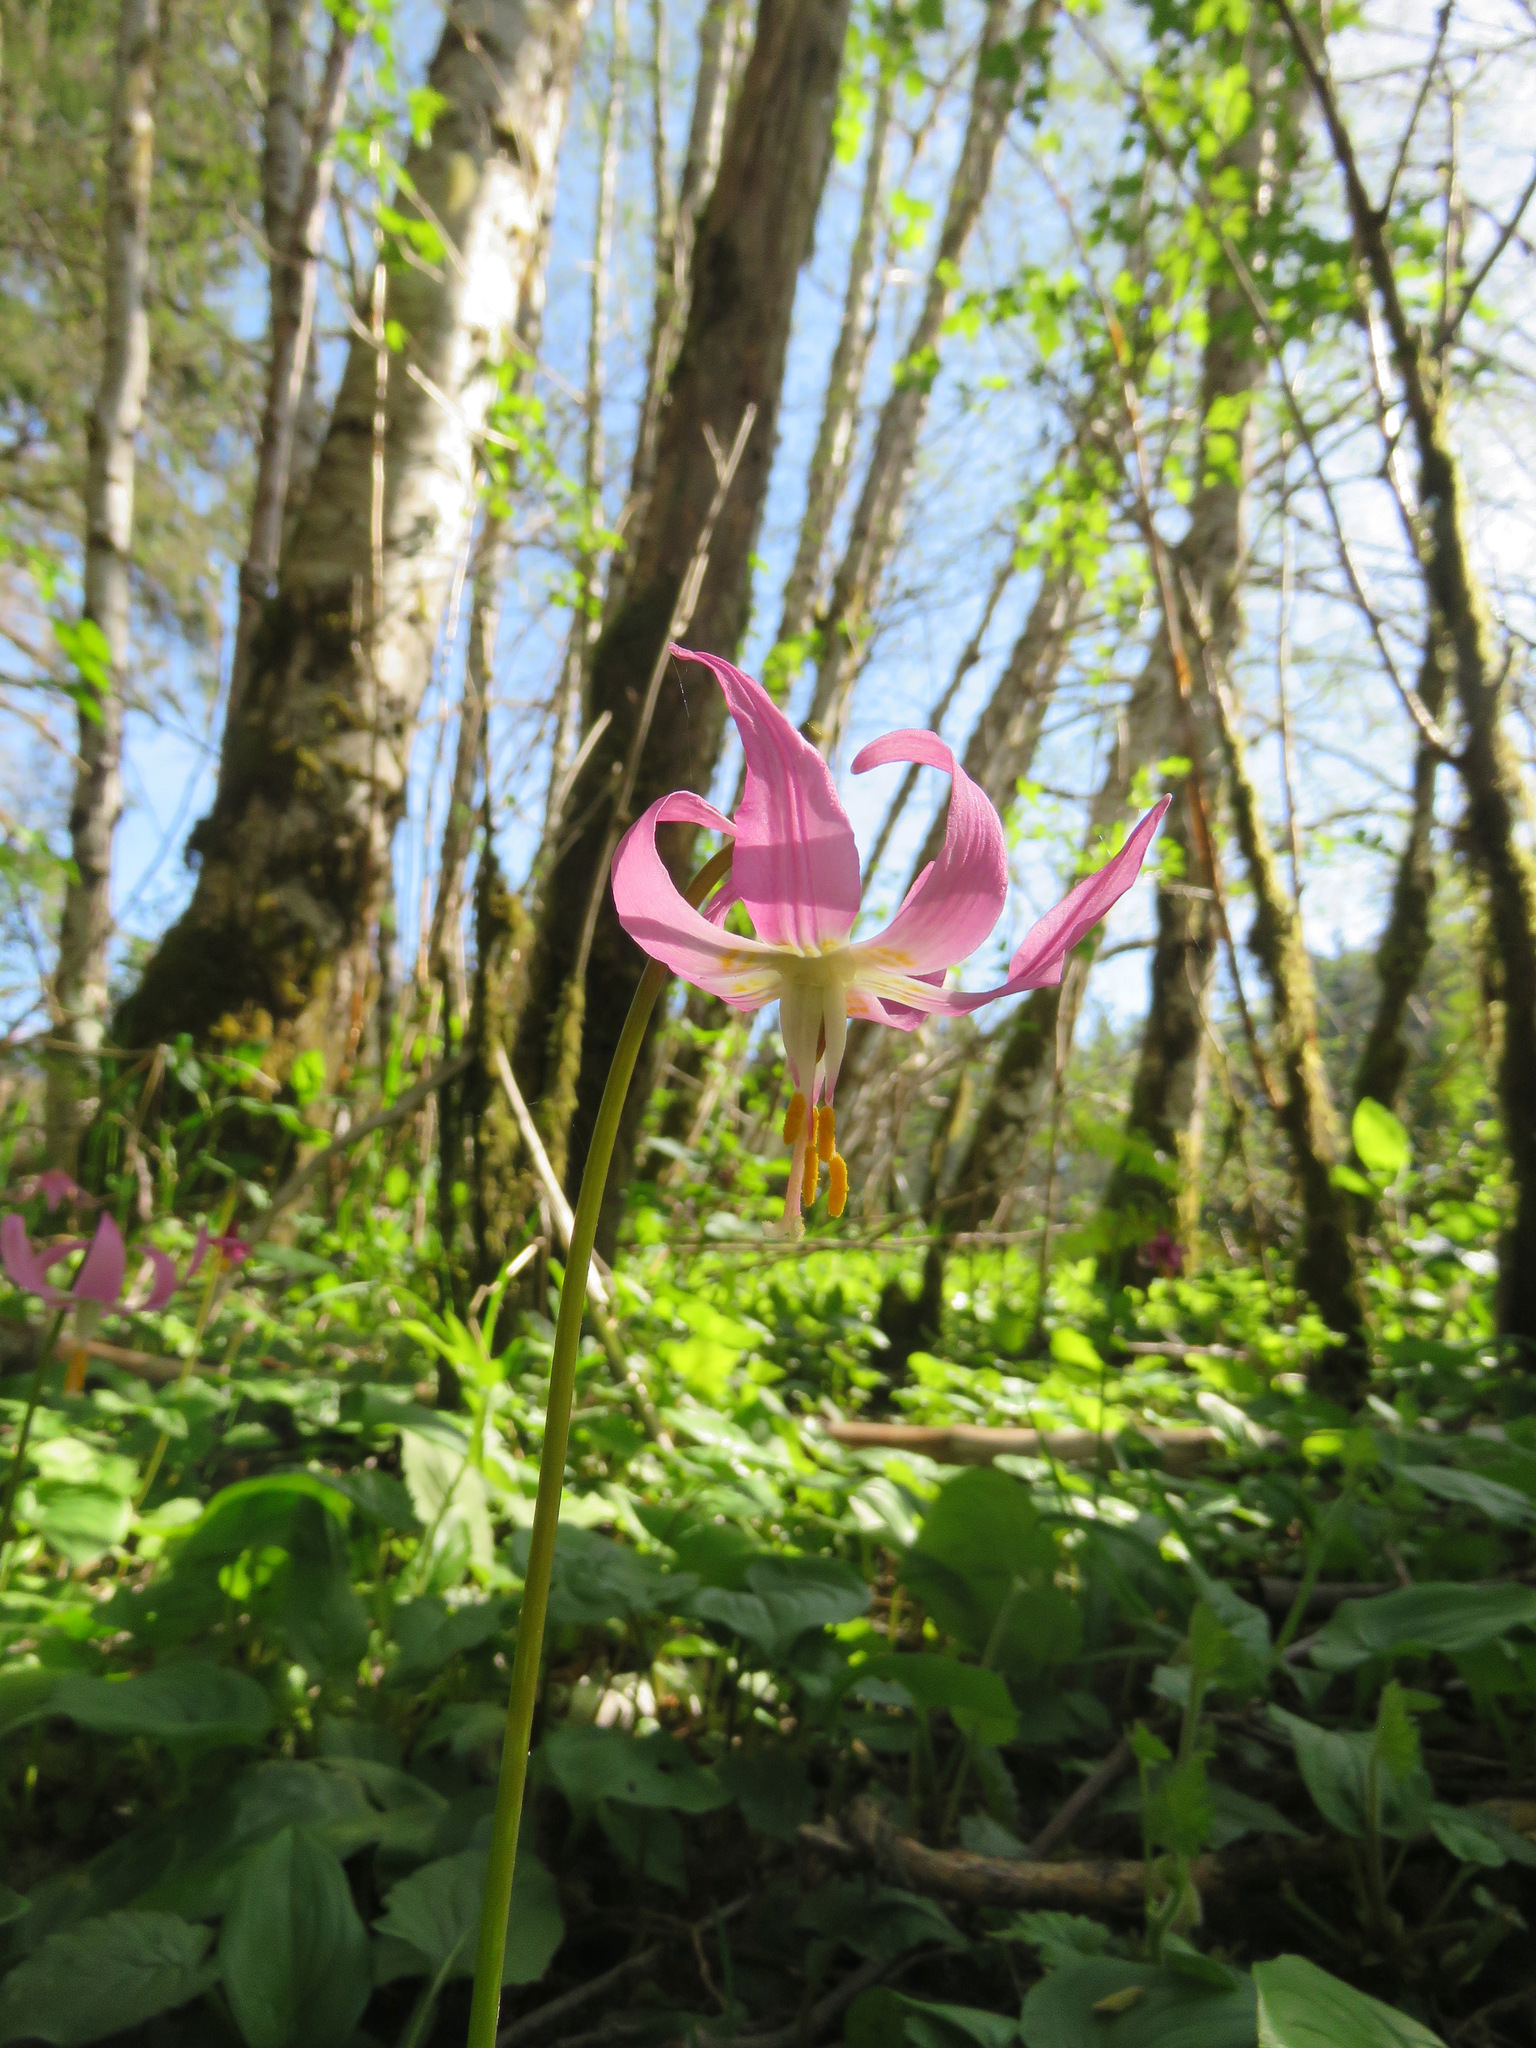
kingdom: Plantae
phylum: Tracheophyta
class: Liliopsida
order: Liliales
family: Liliaceae
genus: Erythronium
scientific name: Erythronium revolutum
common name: Pink fawn-lily
